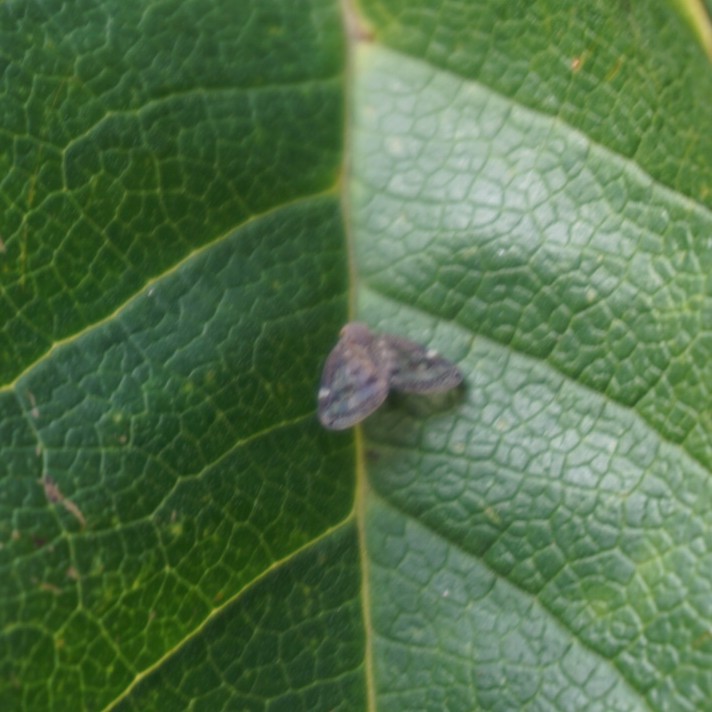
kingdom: Animalia
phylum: Arthropoda
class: Insecta
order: Hemiptera
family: Ricaniidae
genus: Scolypopa
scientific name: Scolypopa australis
